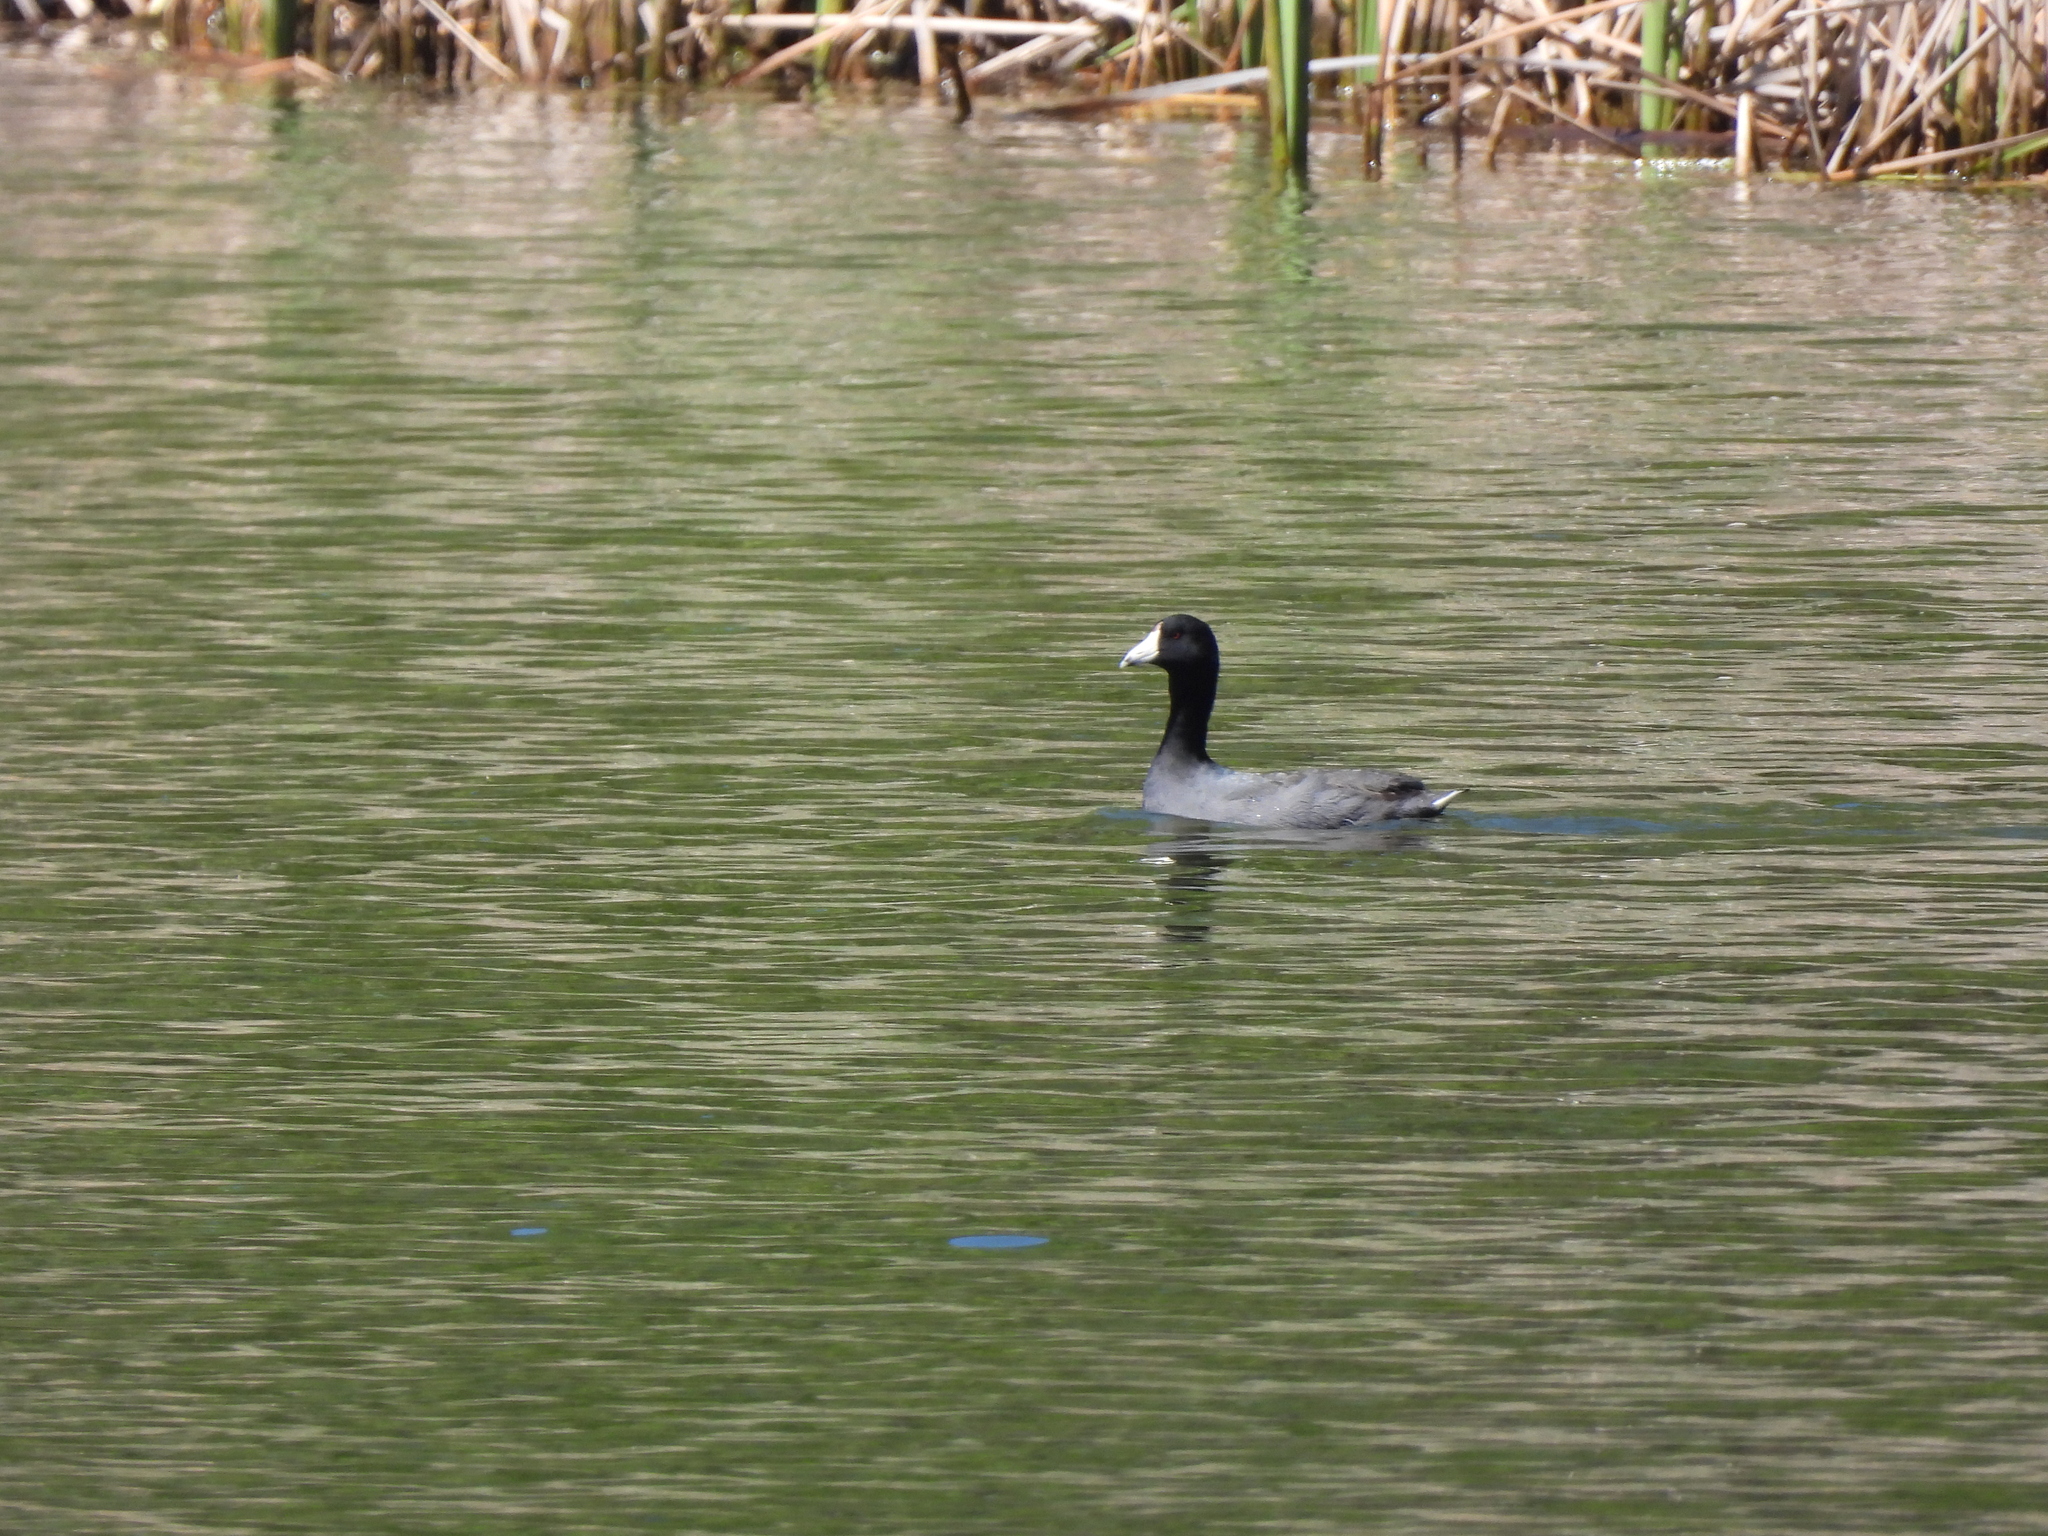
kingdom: Animalia
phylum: Chordata
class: Aves
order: Gruiformes
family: Rallidae
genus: Fulica
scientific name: Fulica americana
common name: American coot
